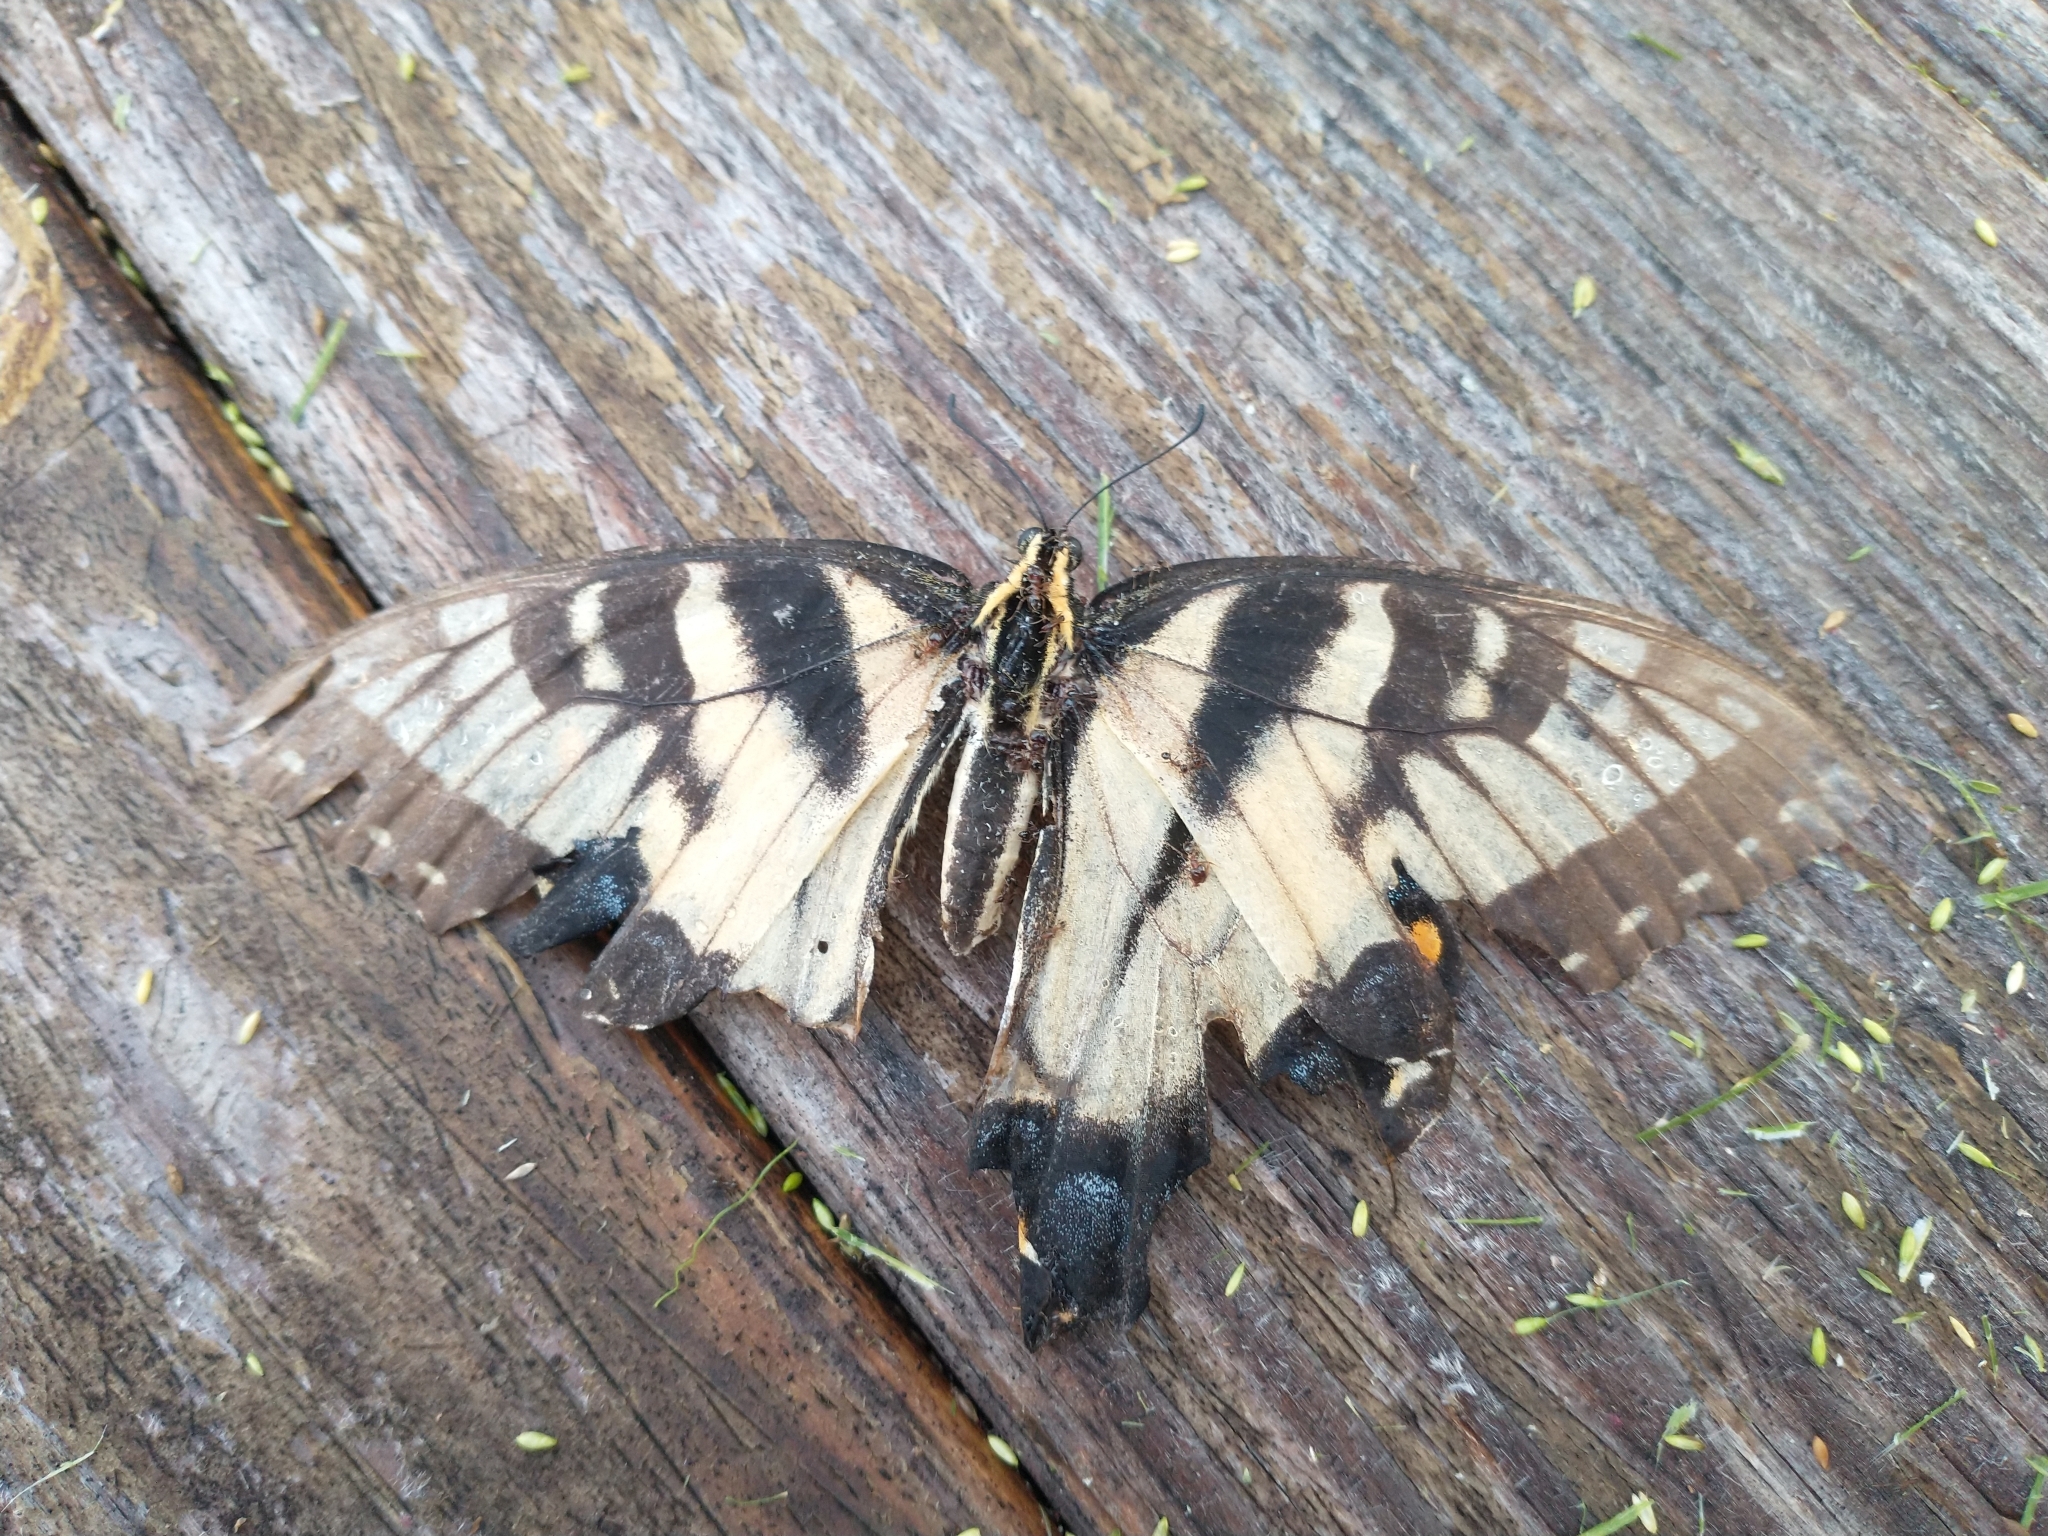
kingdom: Animalia
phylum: Arthropoda
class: Insecta
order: Lepidoptera
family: Papilionidae
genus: Papilio
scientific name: Papilio glaucus
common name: Tiger swallowtail
